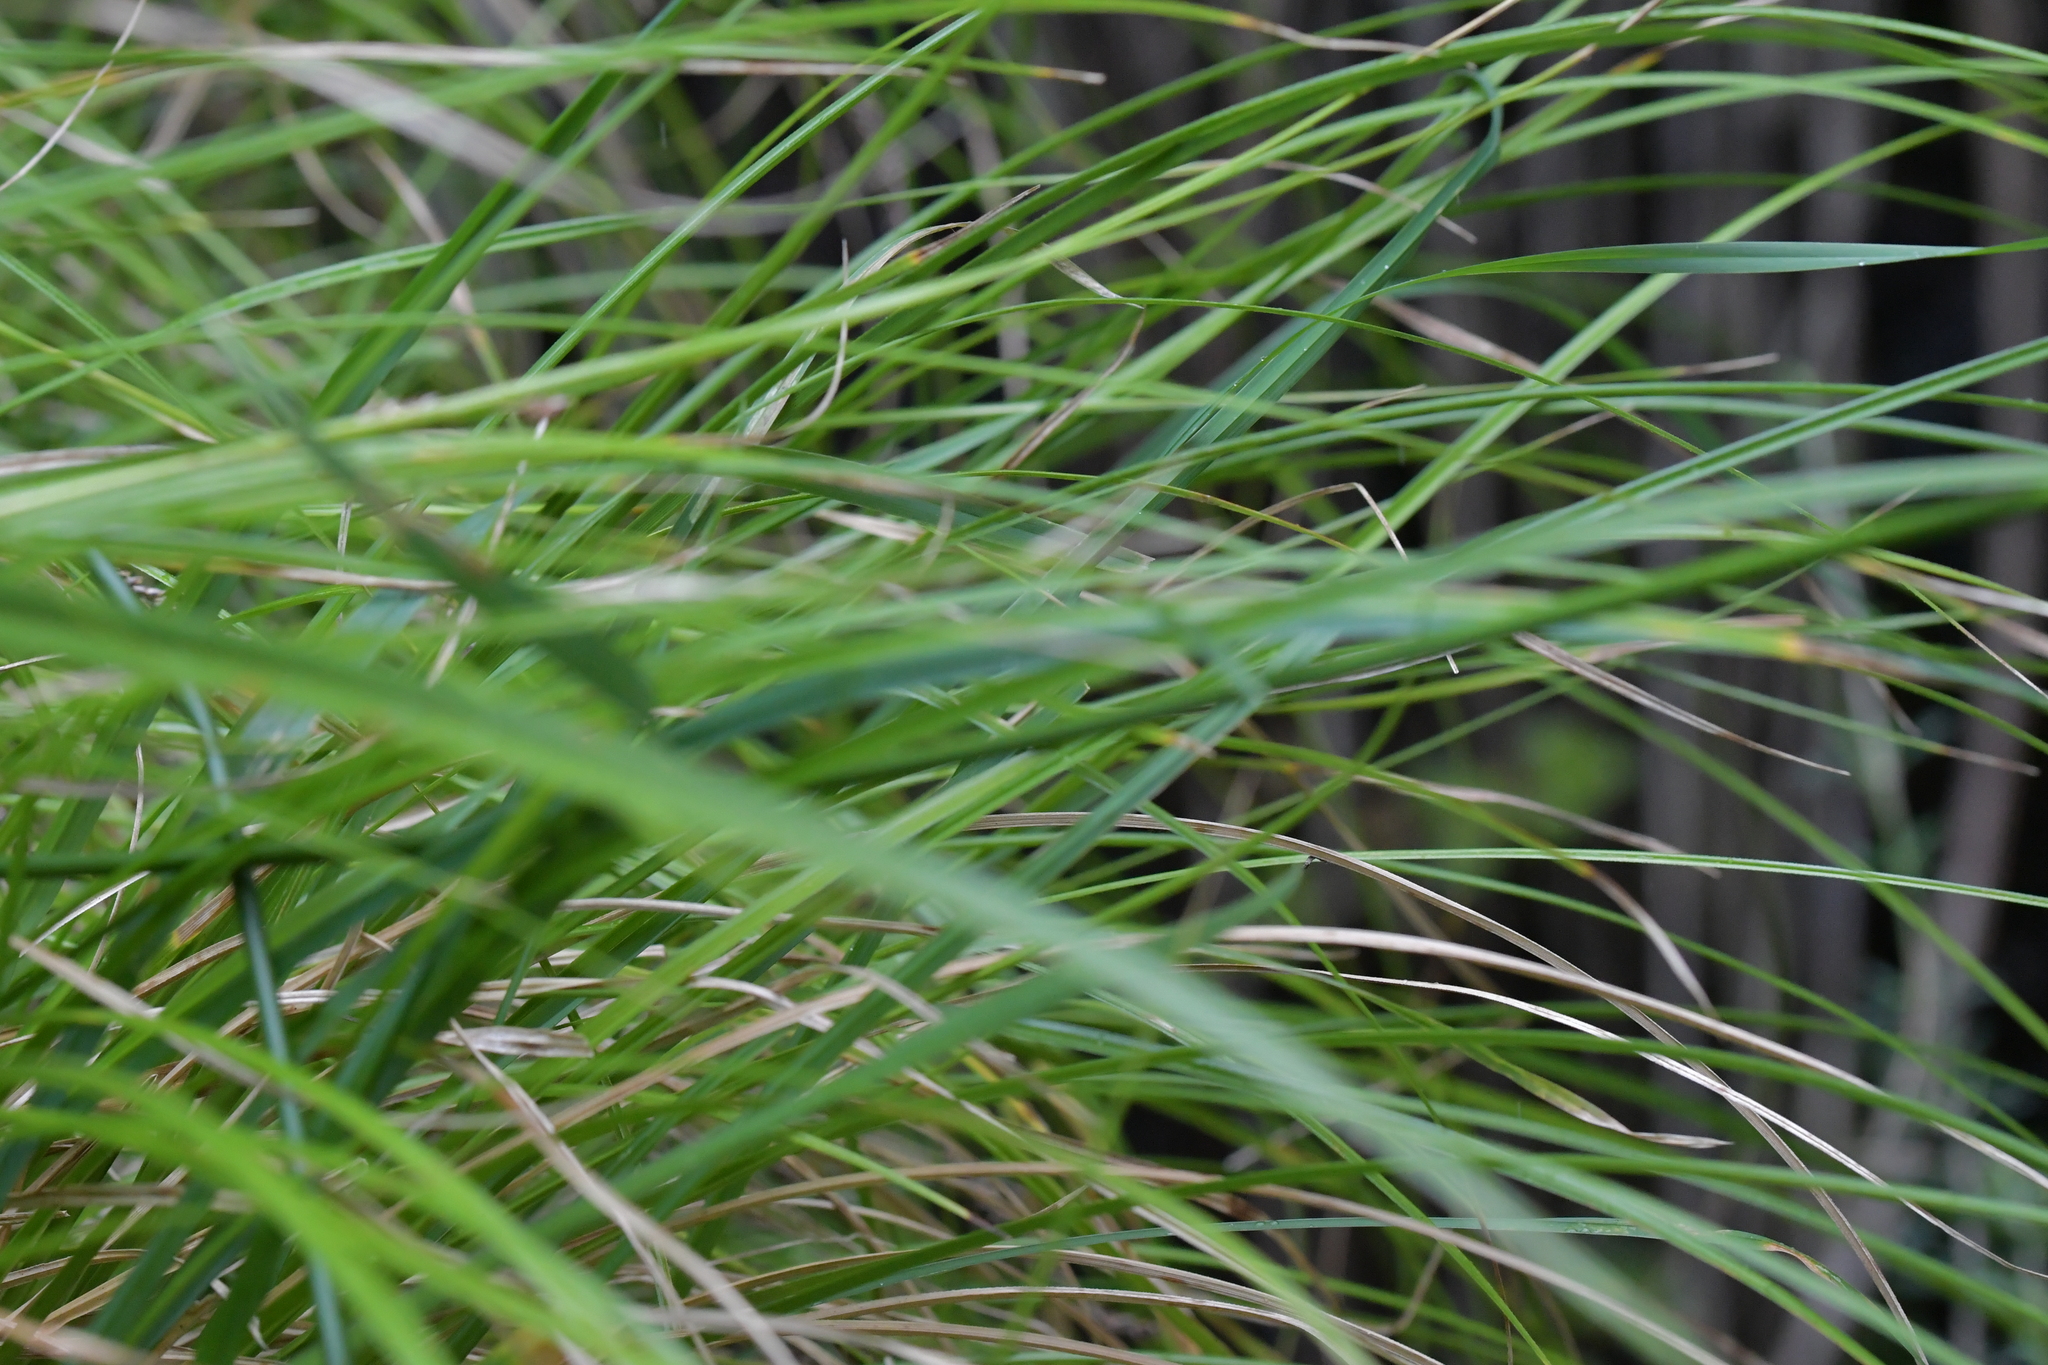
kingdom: Plantae
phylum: Tracheophyta
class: Liliopsida
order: Poales
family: Cyperaceae
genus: Carex
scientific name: Carex uncinata
